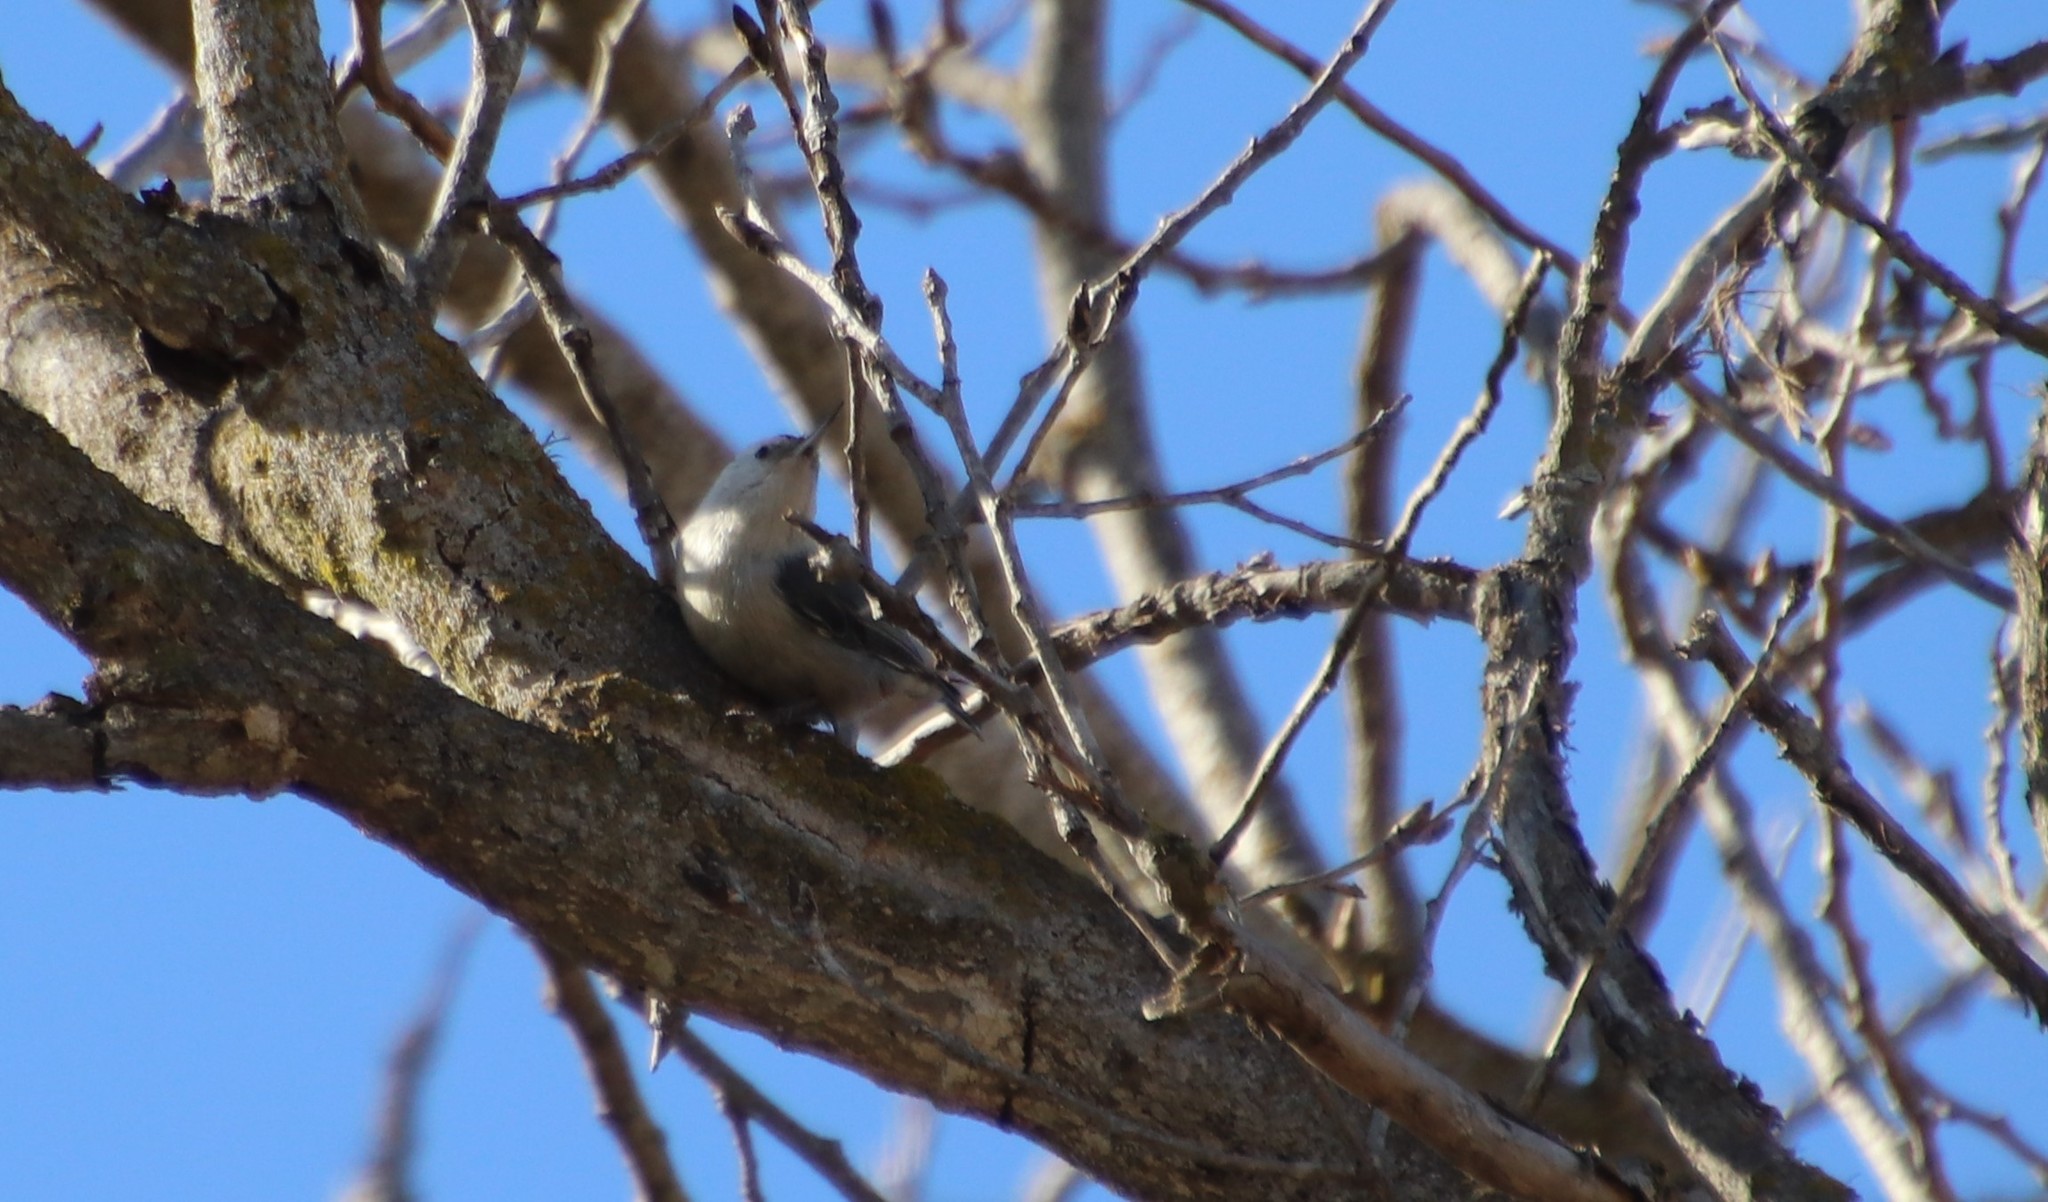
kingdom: Animalia
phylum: Chordata
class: Aves
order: Passeriformes
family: Sittidae
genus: Sitta
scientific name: Sitta carolinensis
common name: White-breasted nuthatch
